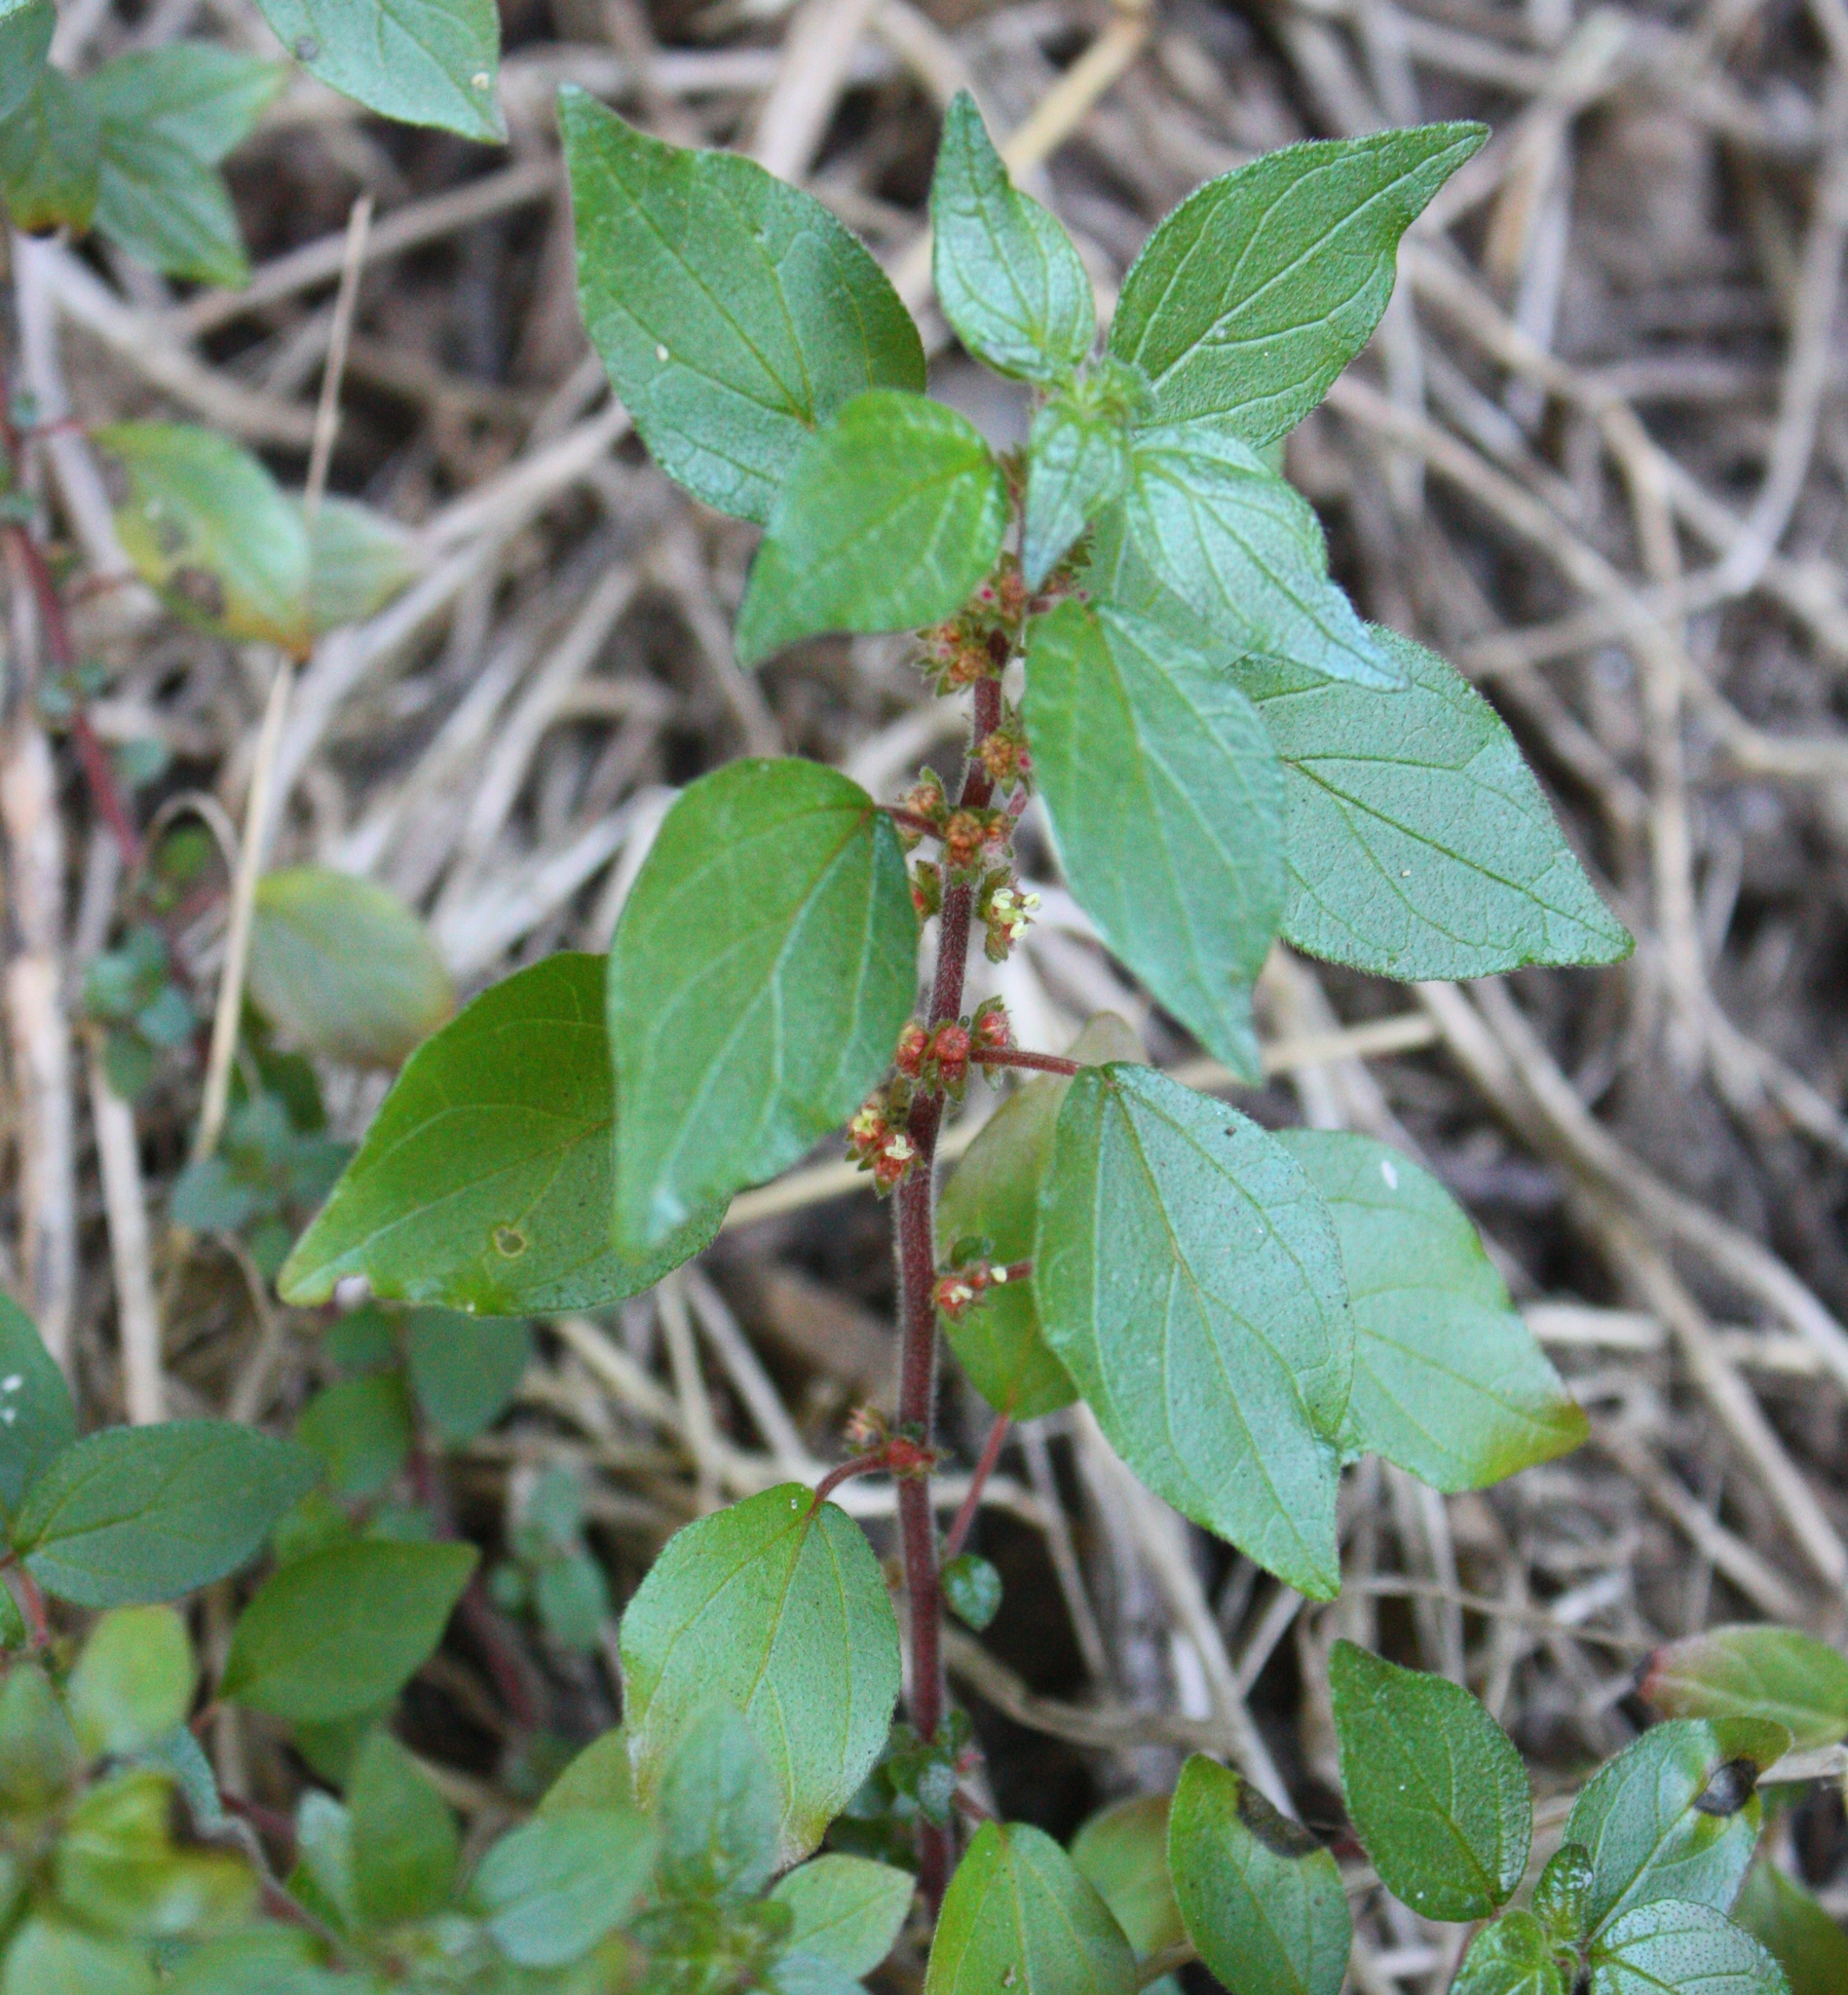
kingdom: Plantae
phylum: Tracheophyta
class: Magnoliopsida
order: Rosales
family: Urticaceae
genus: Parietaria
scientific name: Parietaria judaica
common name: Pellitory-of-the-wall
